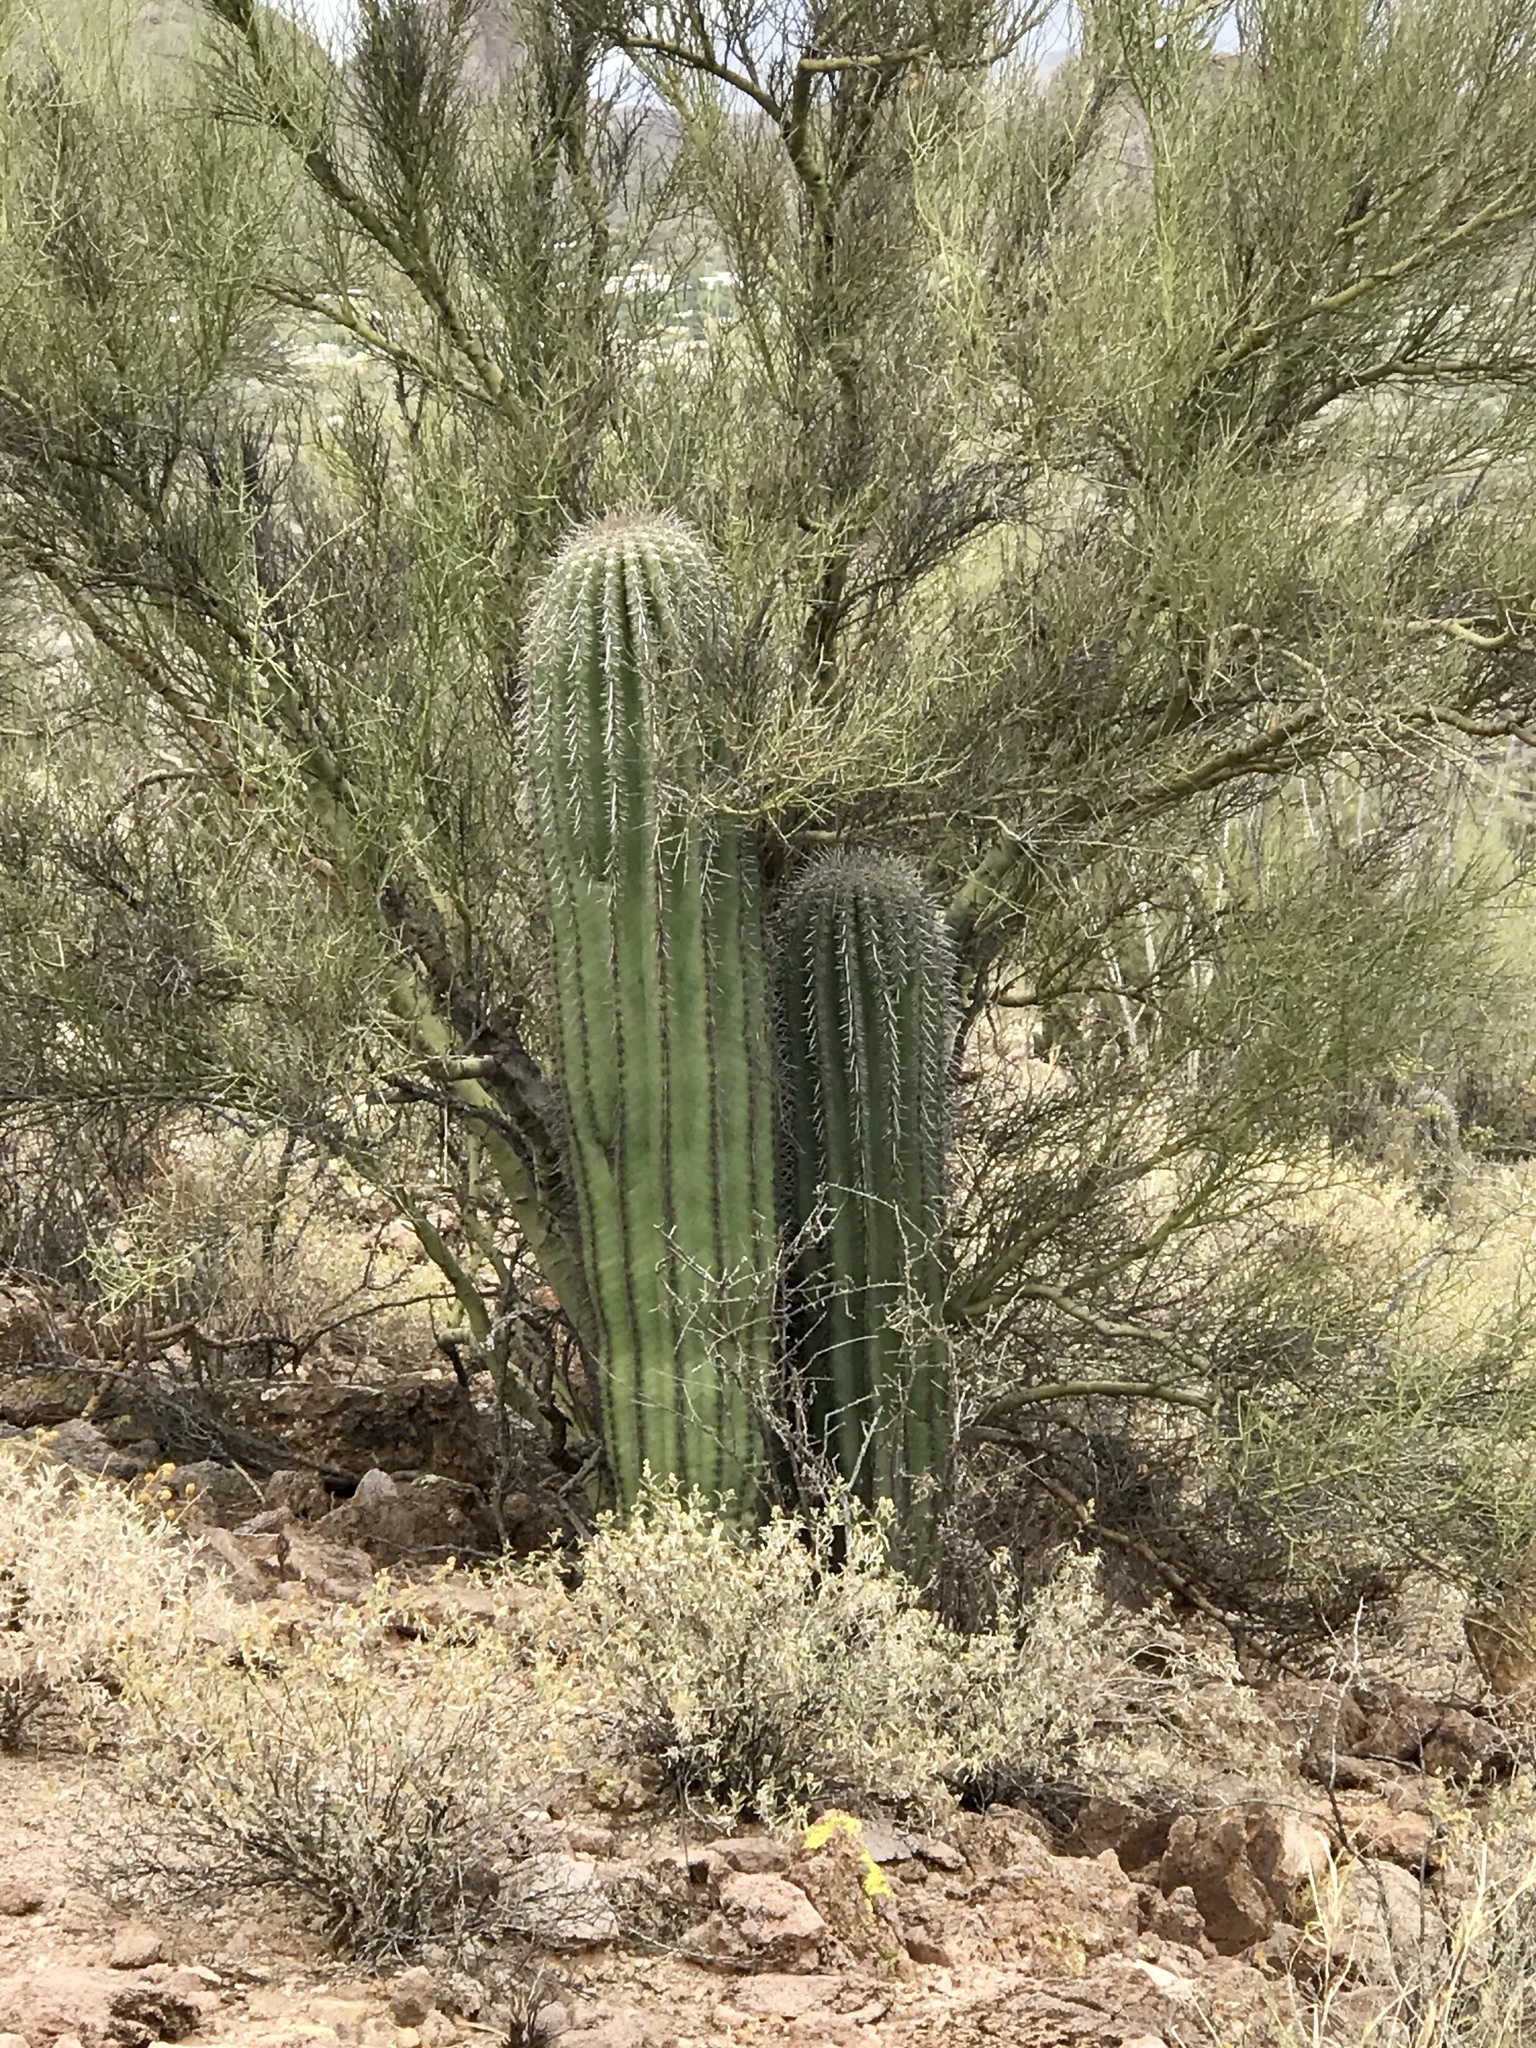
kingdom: Plantae
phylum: Tracheophyta
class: Magnoliopsida
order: Caryophyllales
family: Cactaceae
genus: Carnegiea
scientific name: Carnegiea gigantea
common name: Saguaro
